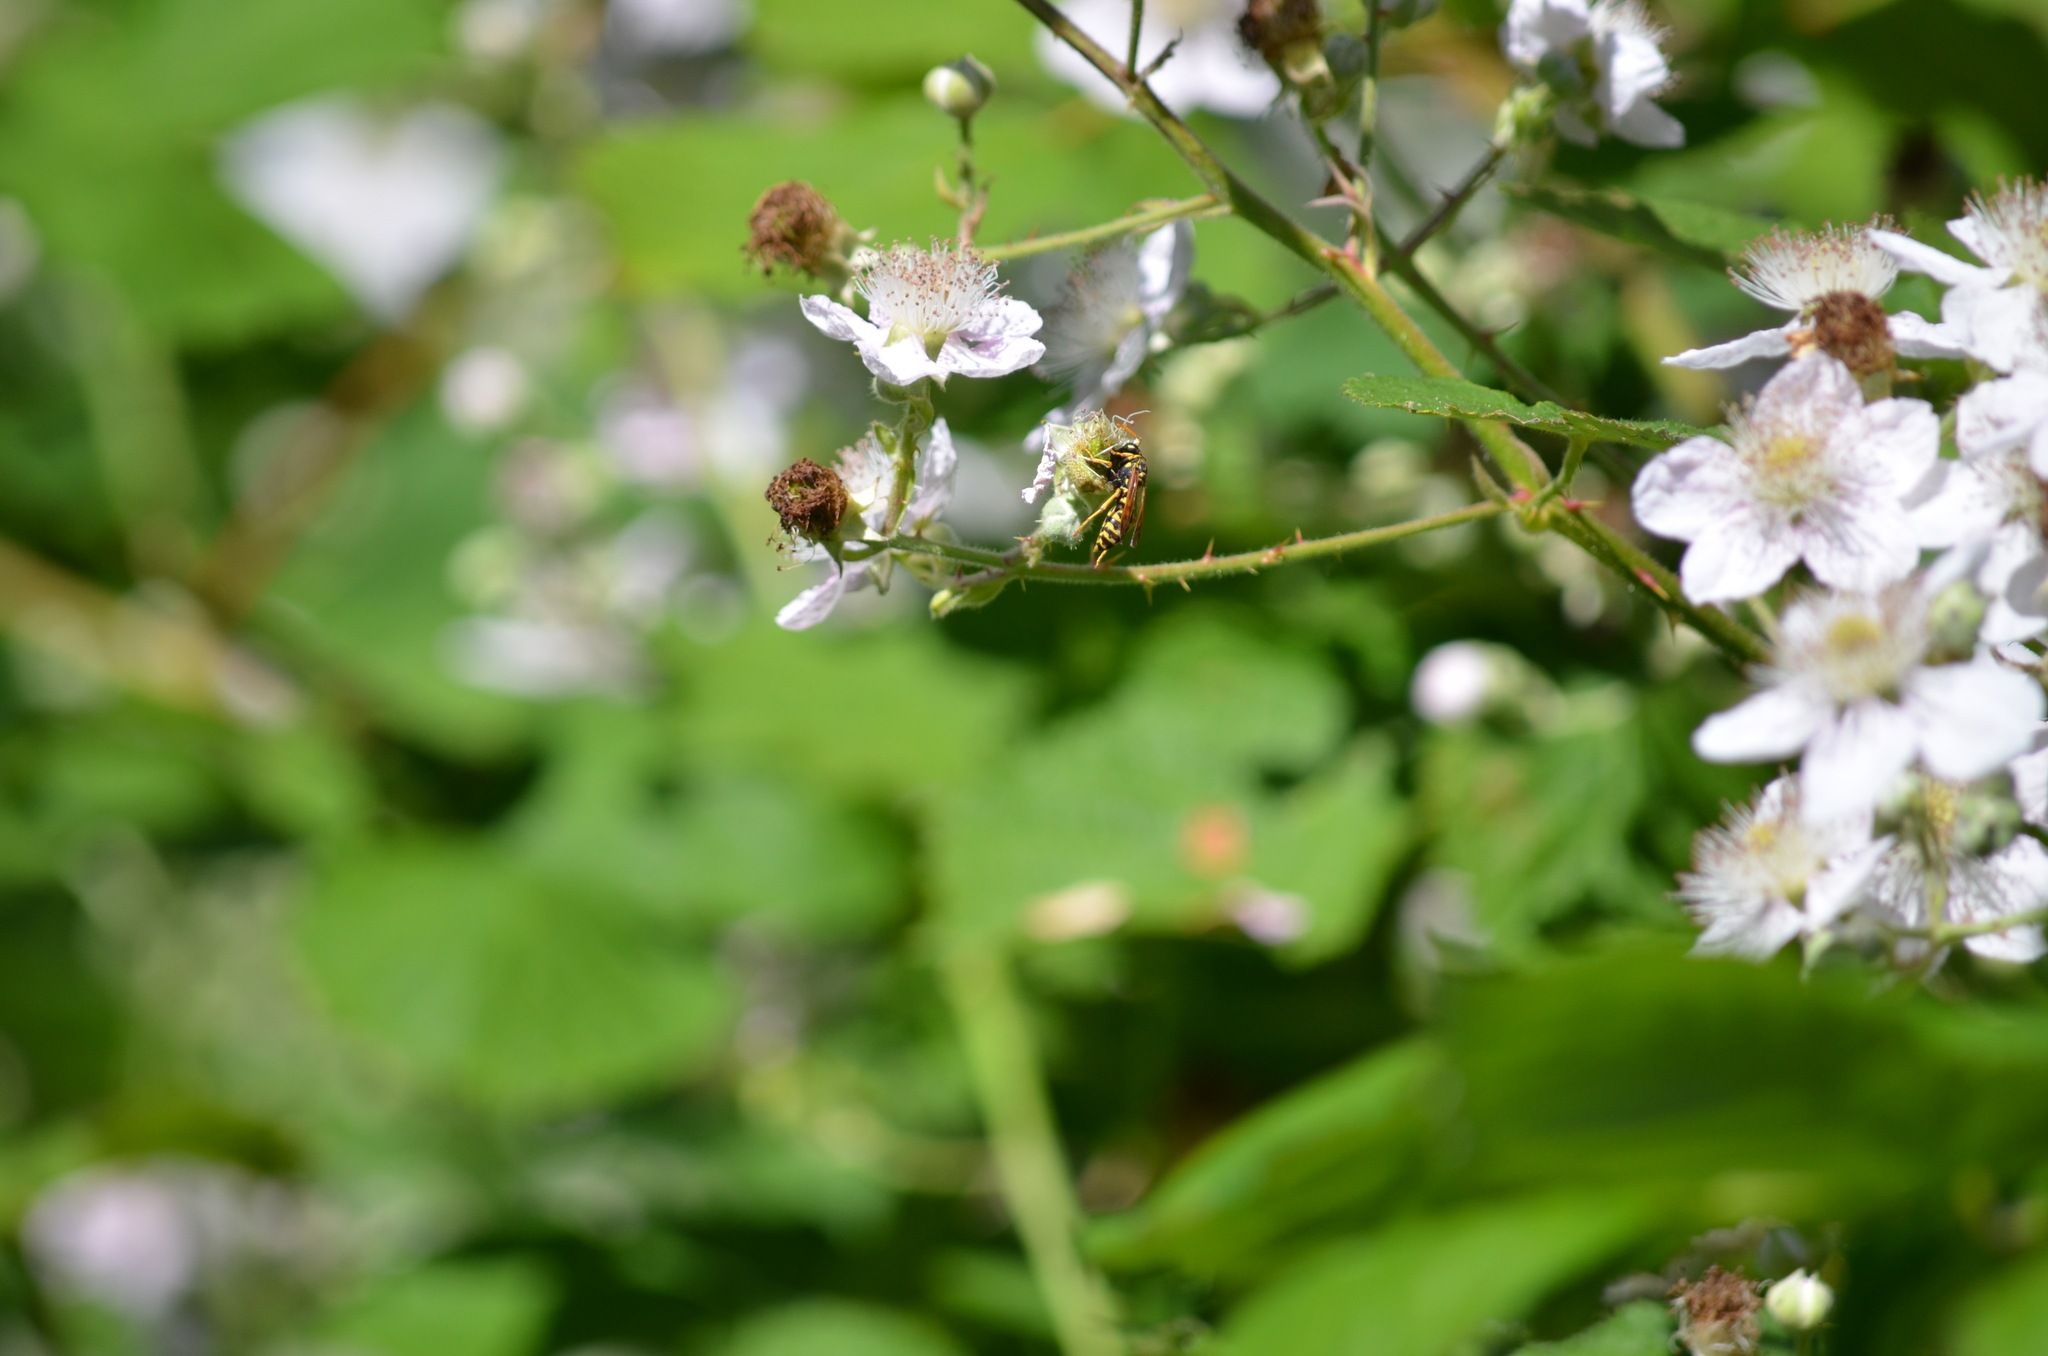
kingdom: Animalia
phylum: Arthropoda
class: Insecta
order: Hymenoptera
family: Eumenidae
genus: Polistes
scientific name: Polistes dominula
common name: Paper wasp
